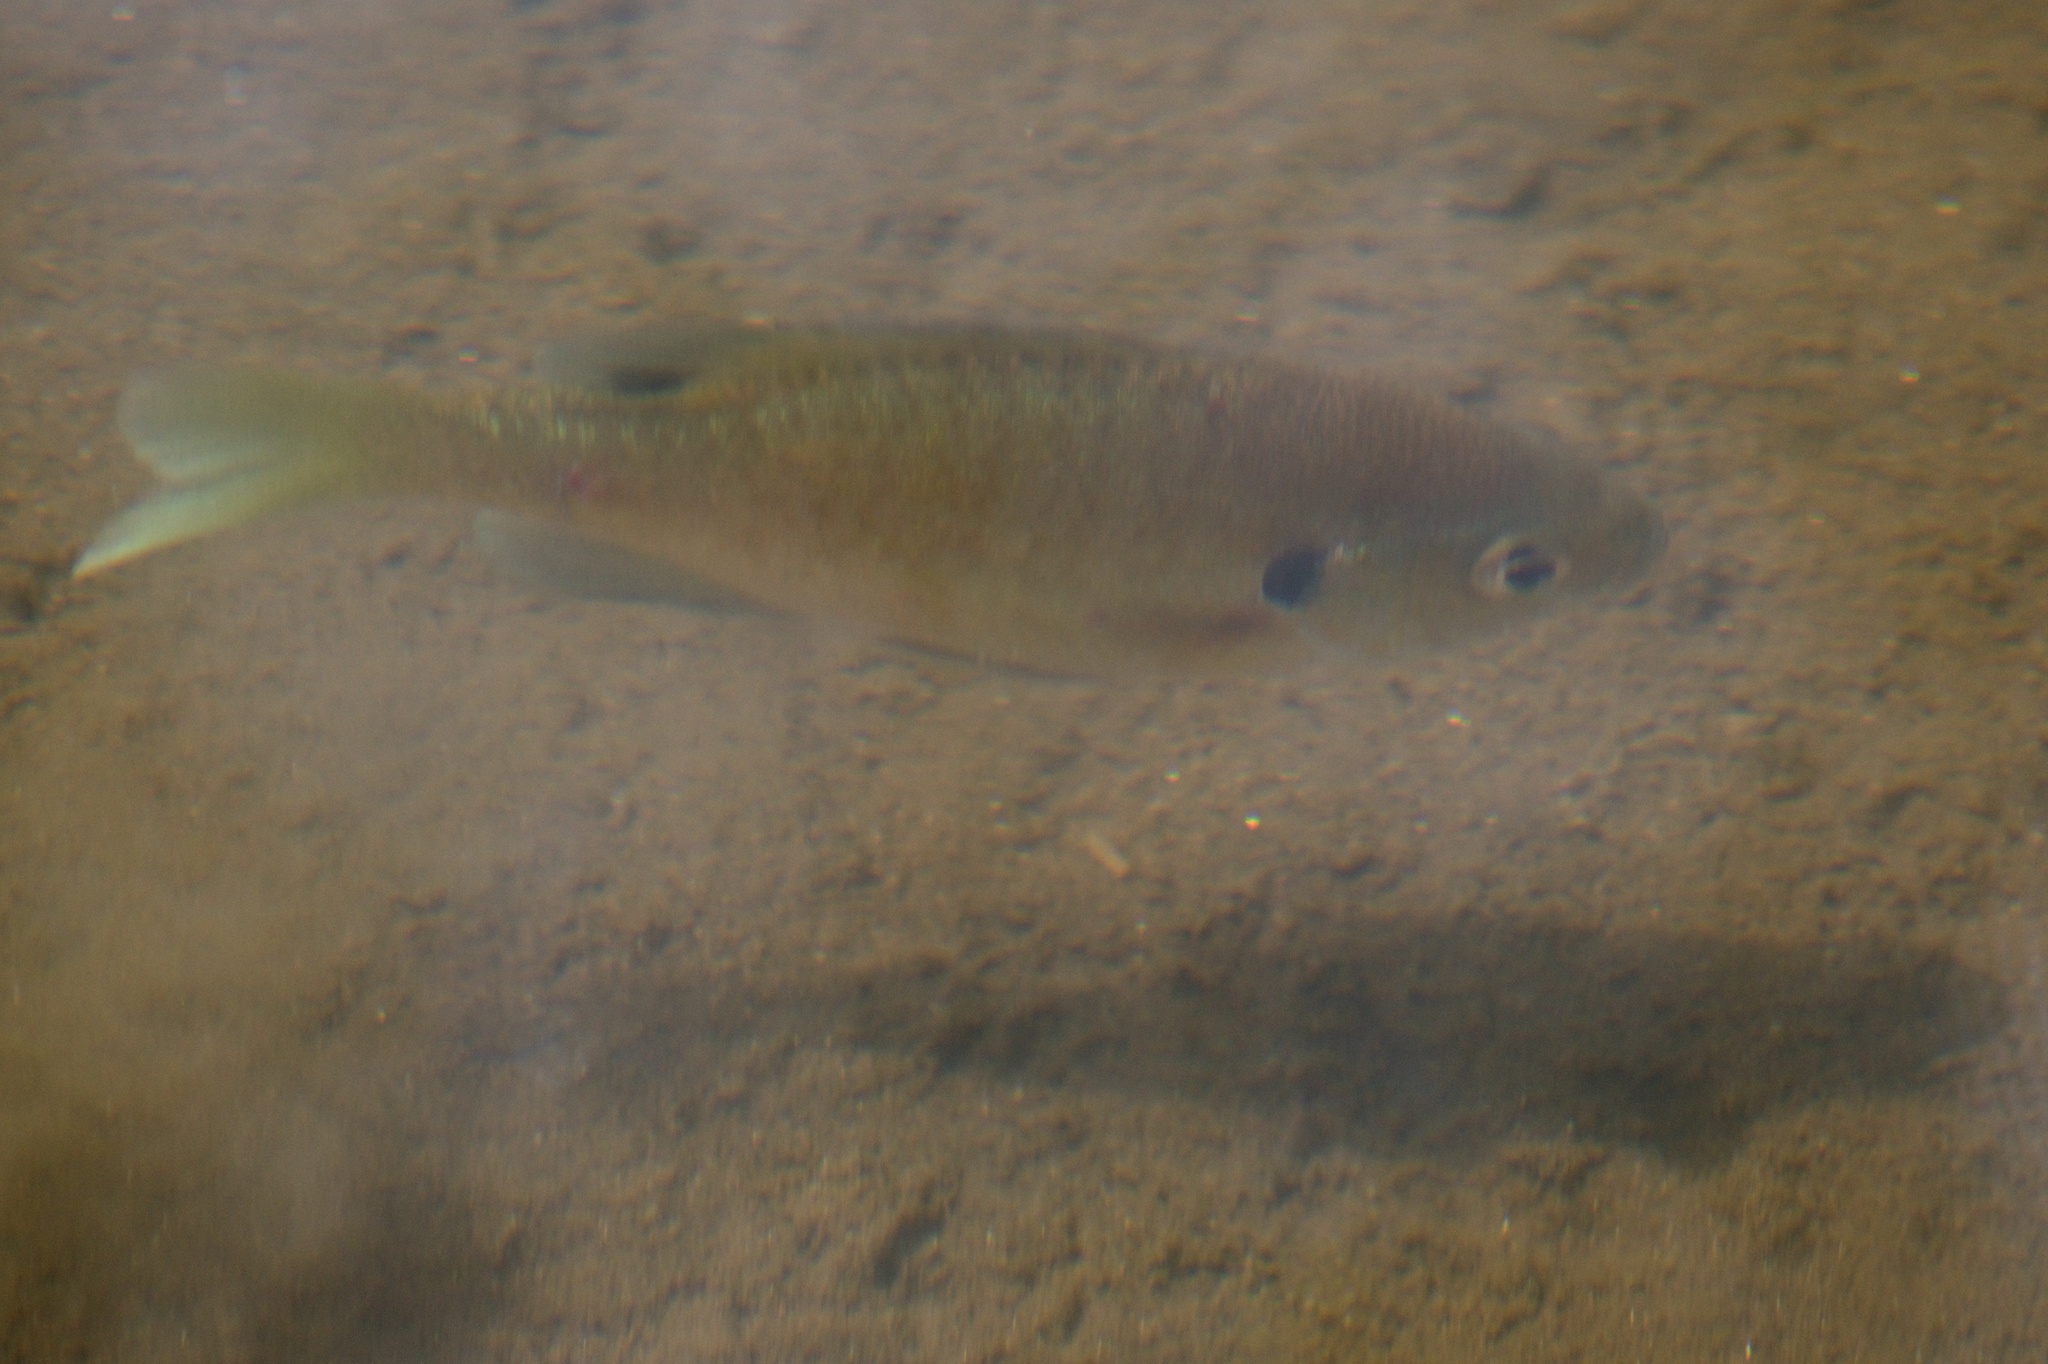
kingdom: Animalia
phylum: Chordata
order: Perciformes
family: Centrarchidae
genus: Lepomis
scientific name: Lepomis macrochirus
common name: Bluegill
